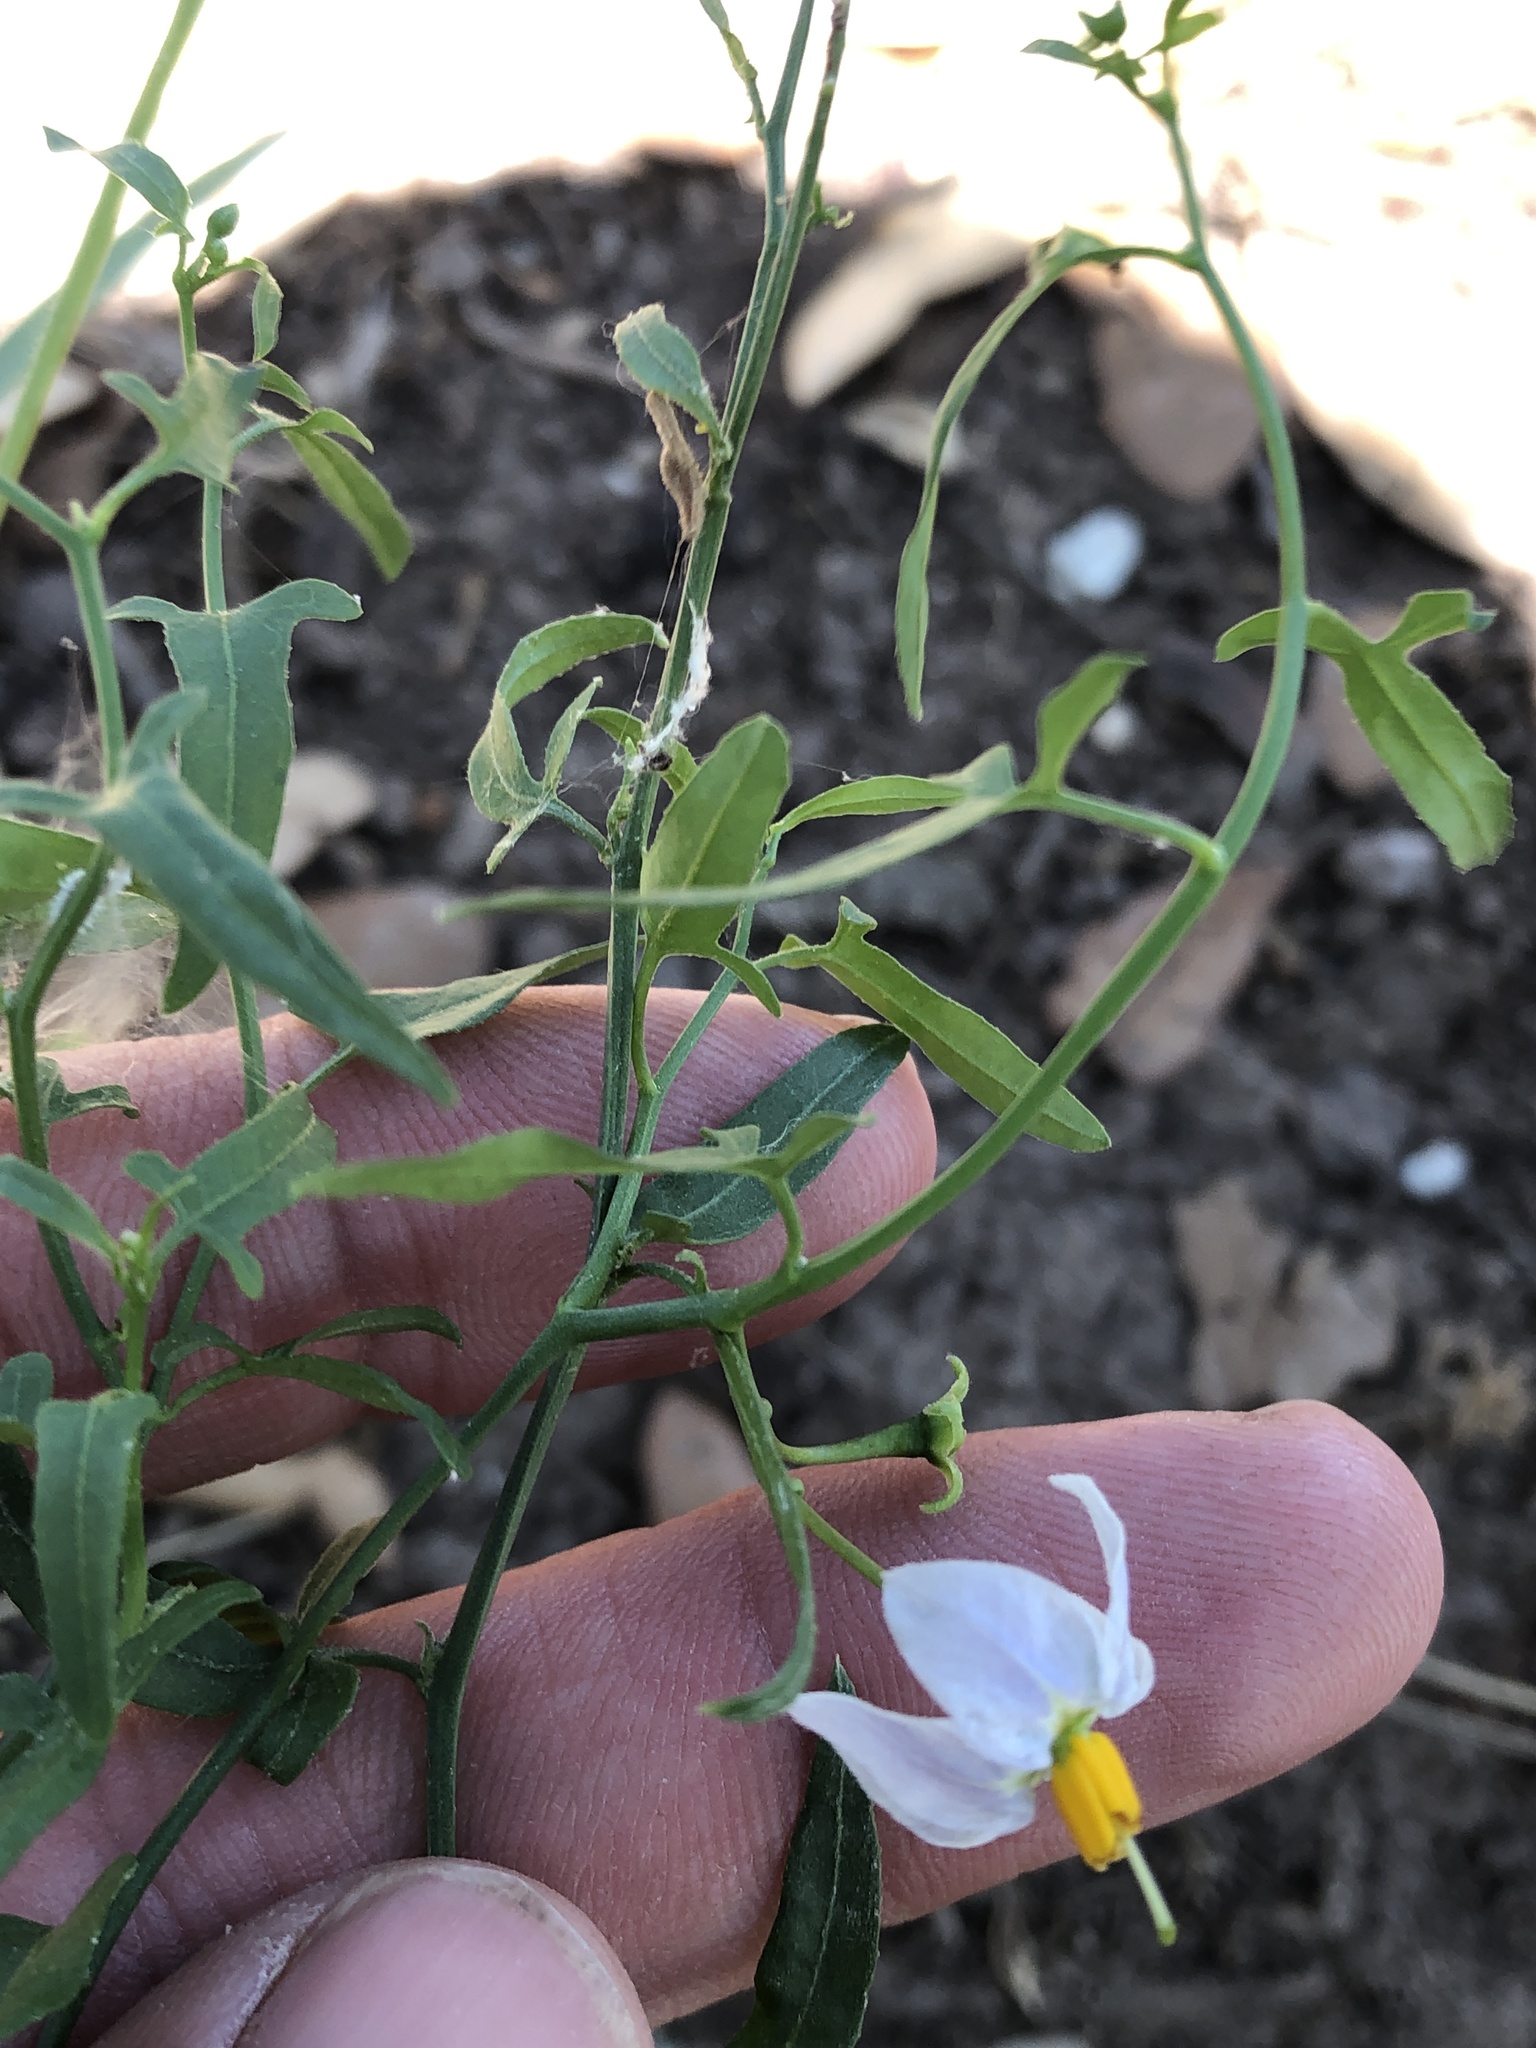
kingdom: Plantae
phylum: Tracheophyta
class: Magnoliopsida
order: Solanales
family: Solanaceae
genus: Solanum
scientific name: Solanum triquetrum
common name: Texas nightshade
